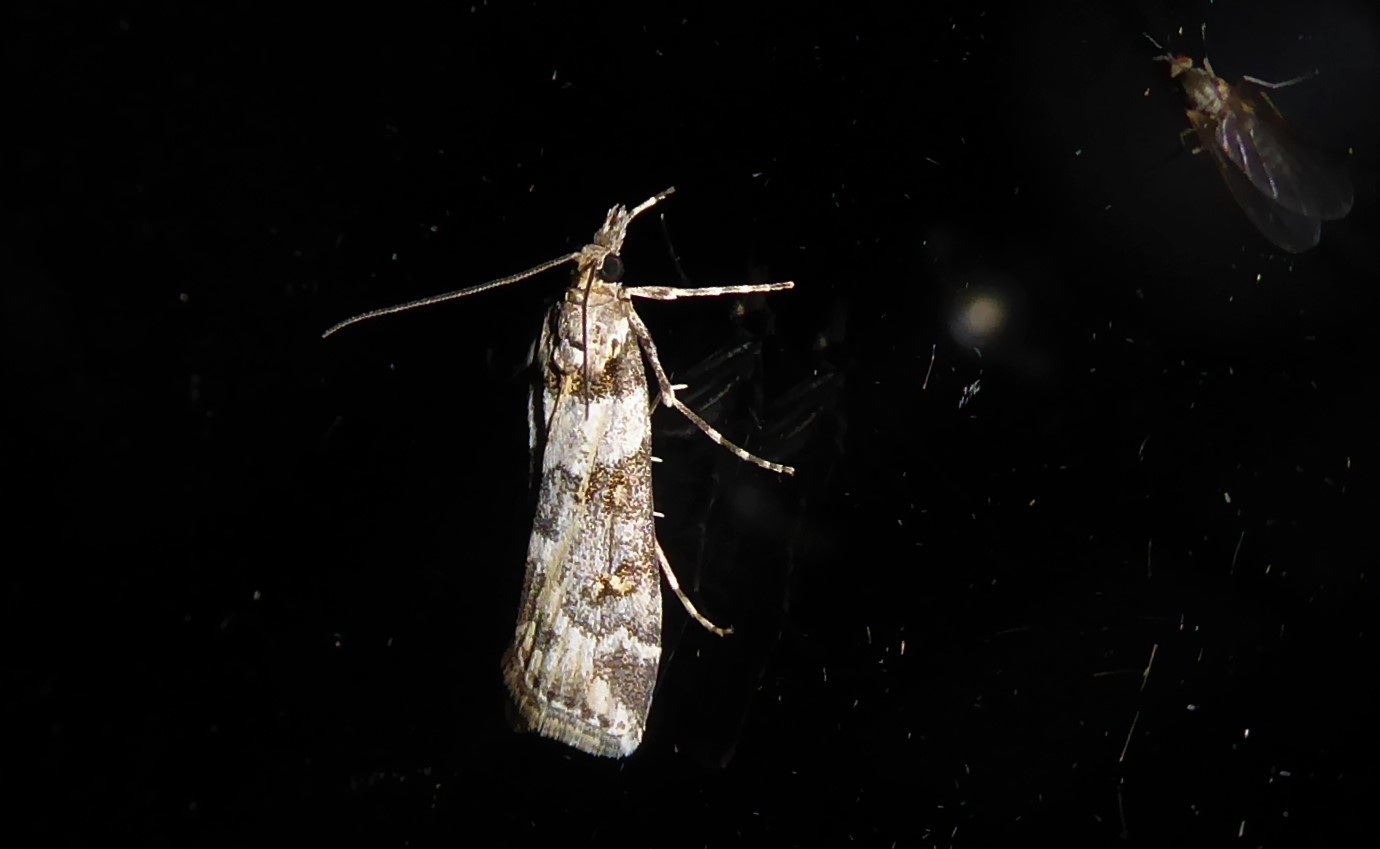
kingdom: Animalia
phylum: Arthropoda
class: Insecta
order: Lepidoptera
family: Crambidae
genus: Eudonia
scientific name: Eudonia diphtheralis
